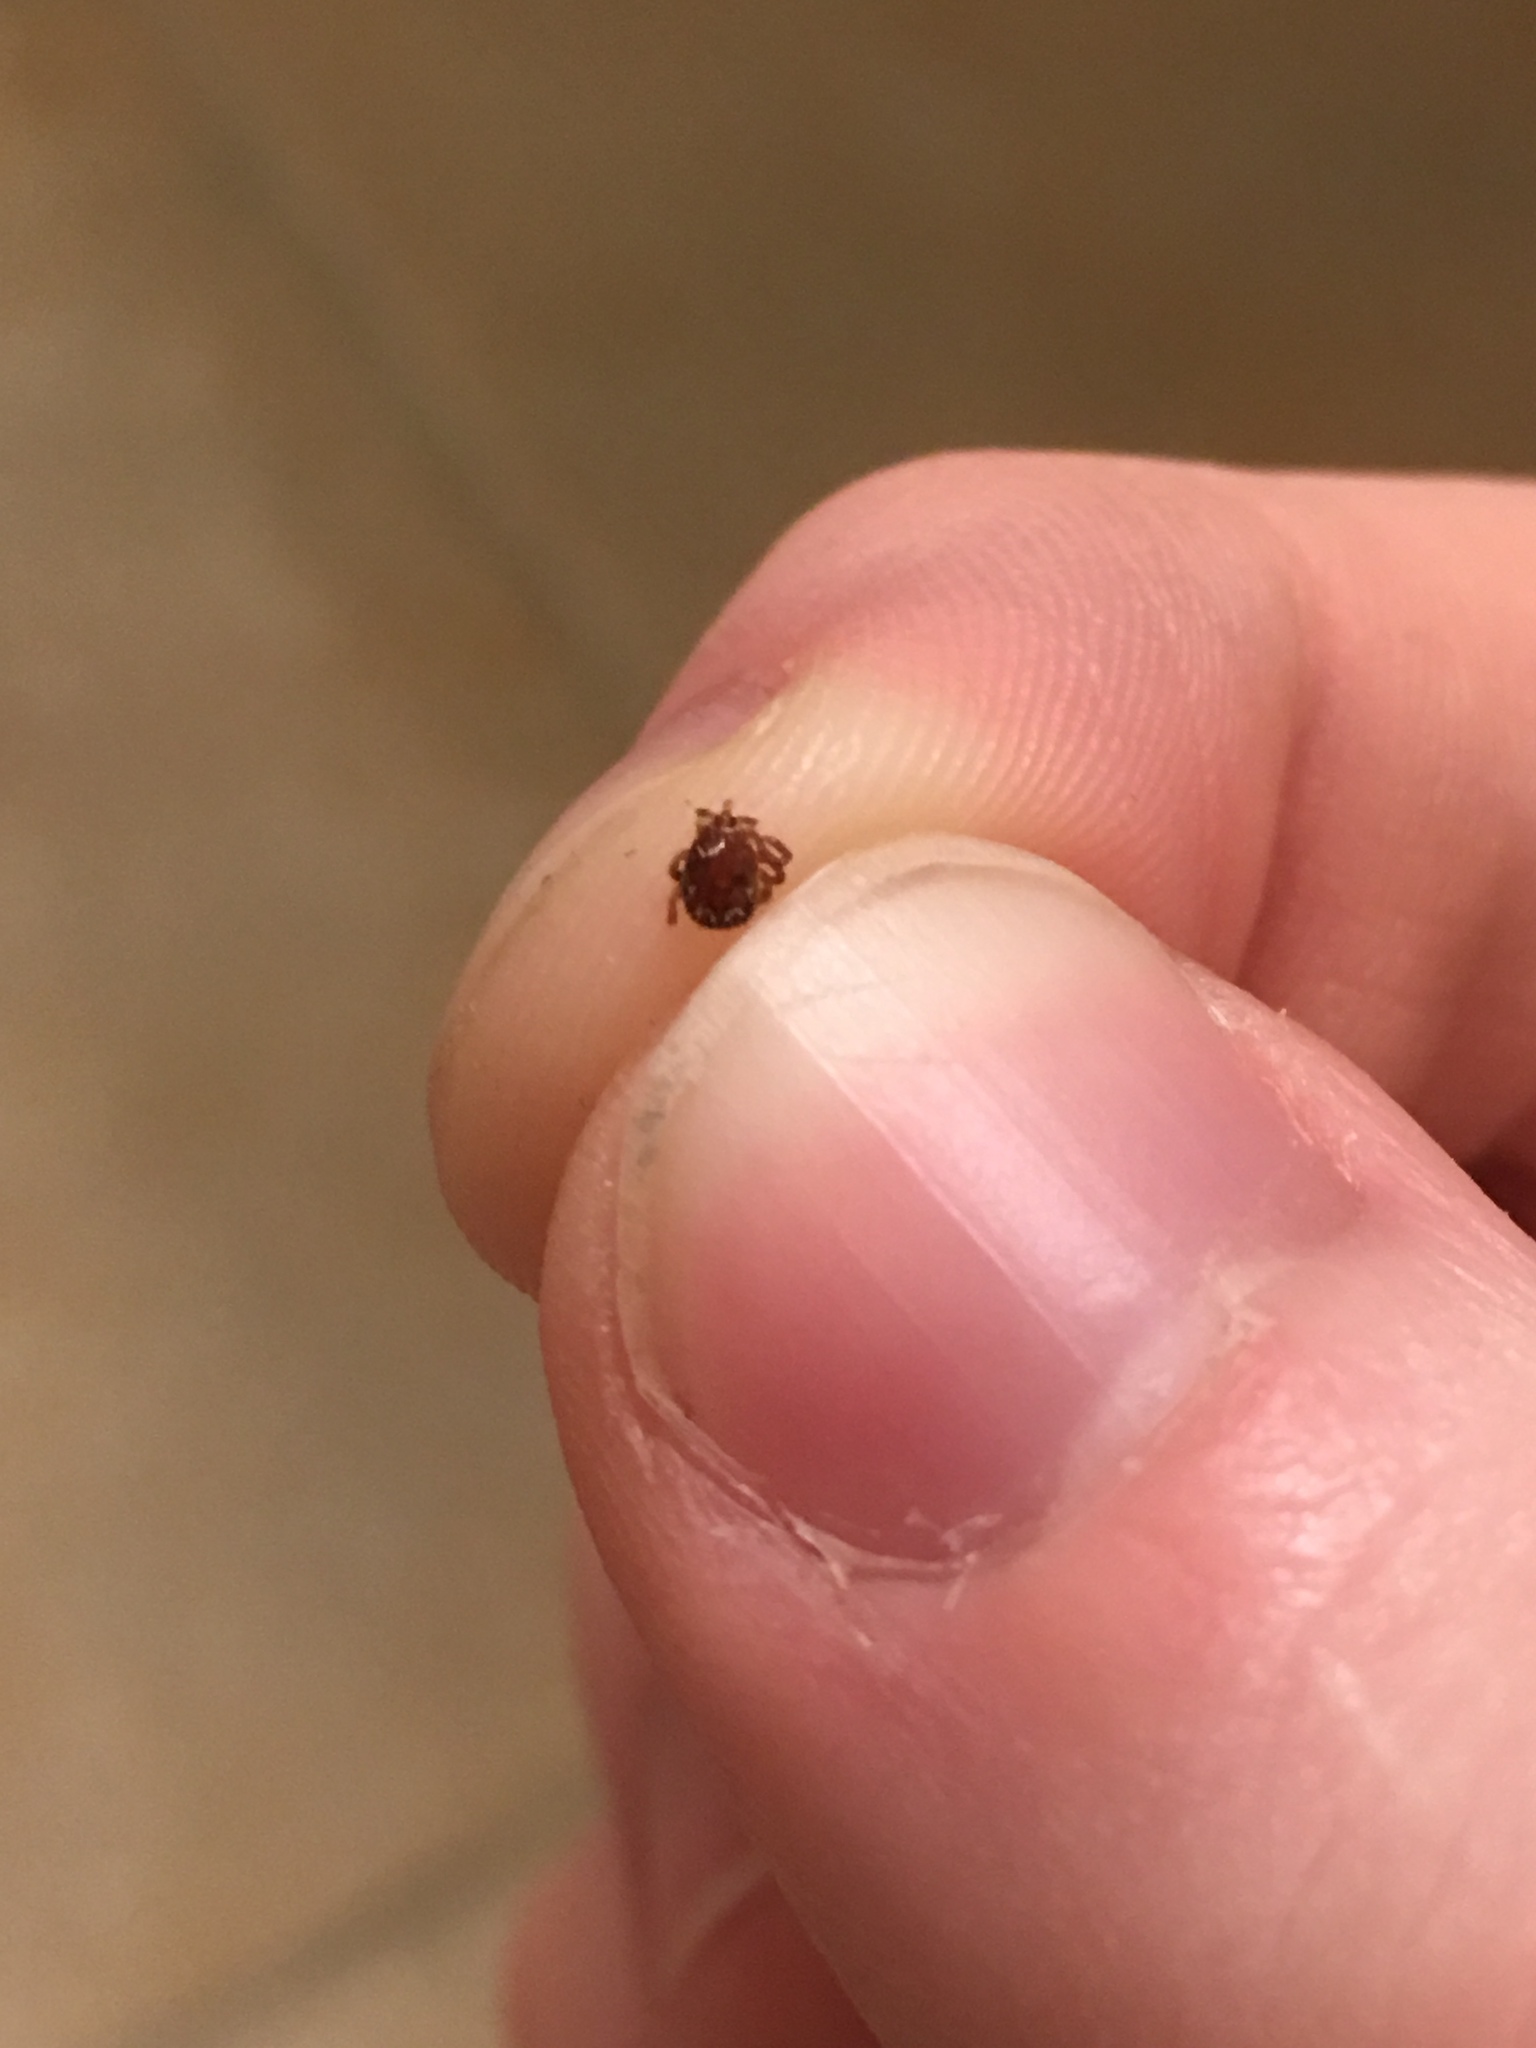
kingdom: Animalia
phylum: Arthropoda
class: Arachnida
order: Ixodida
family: Ixodidae
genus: Amblyomma
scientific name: Amblyomma americanum
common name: Lone star tick
